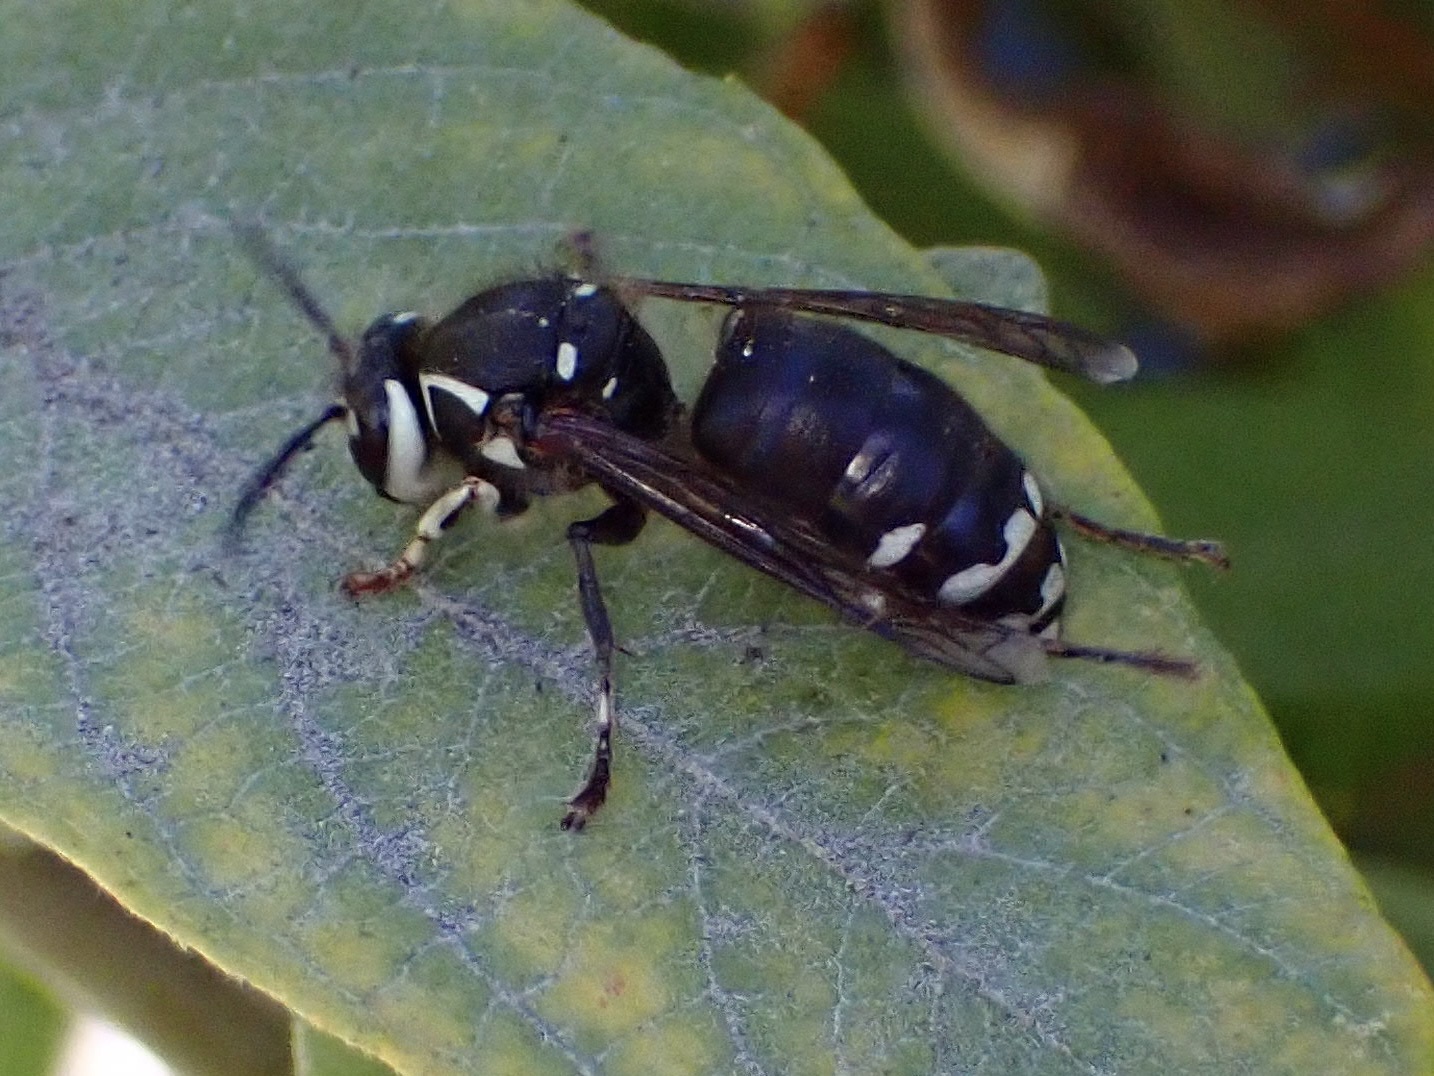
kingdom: Animalia
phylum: Arthropoda
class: Insecta
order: Hymenoptera
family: Vespidae
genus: Dolichovespula
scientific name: Dolichovespula maculata
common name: Bald-faced hornet
